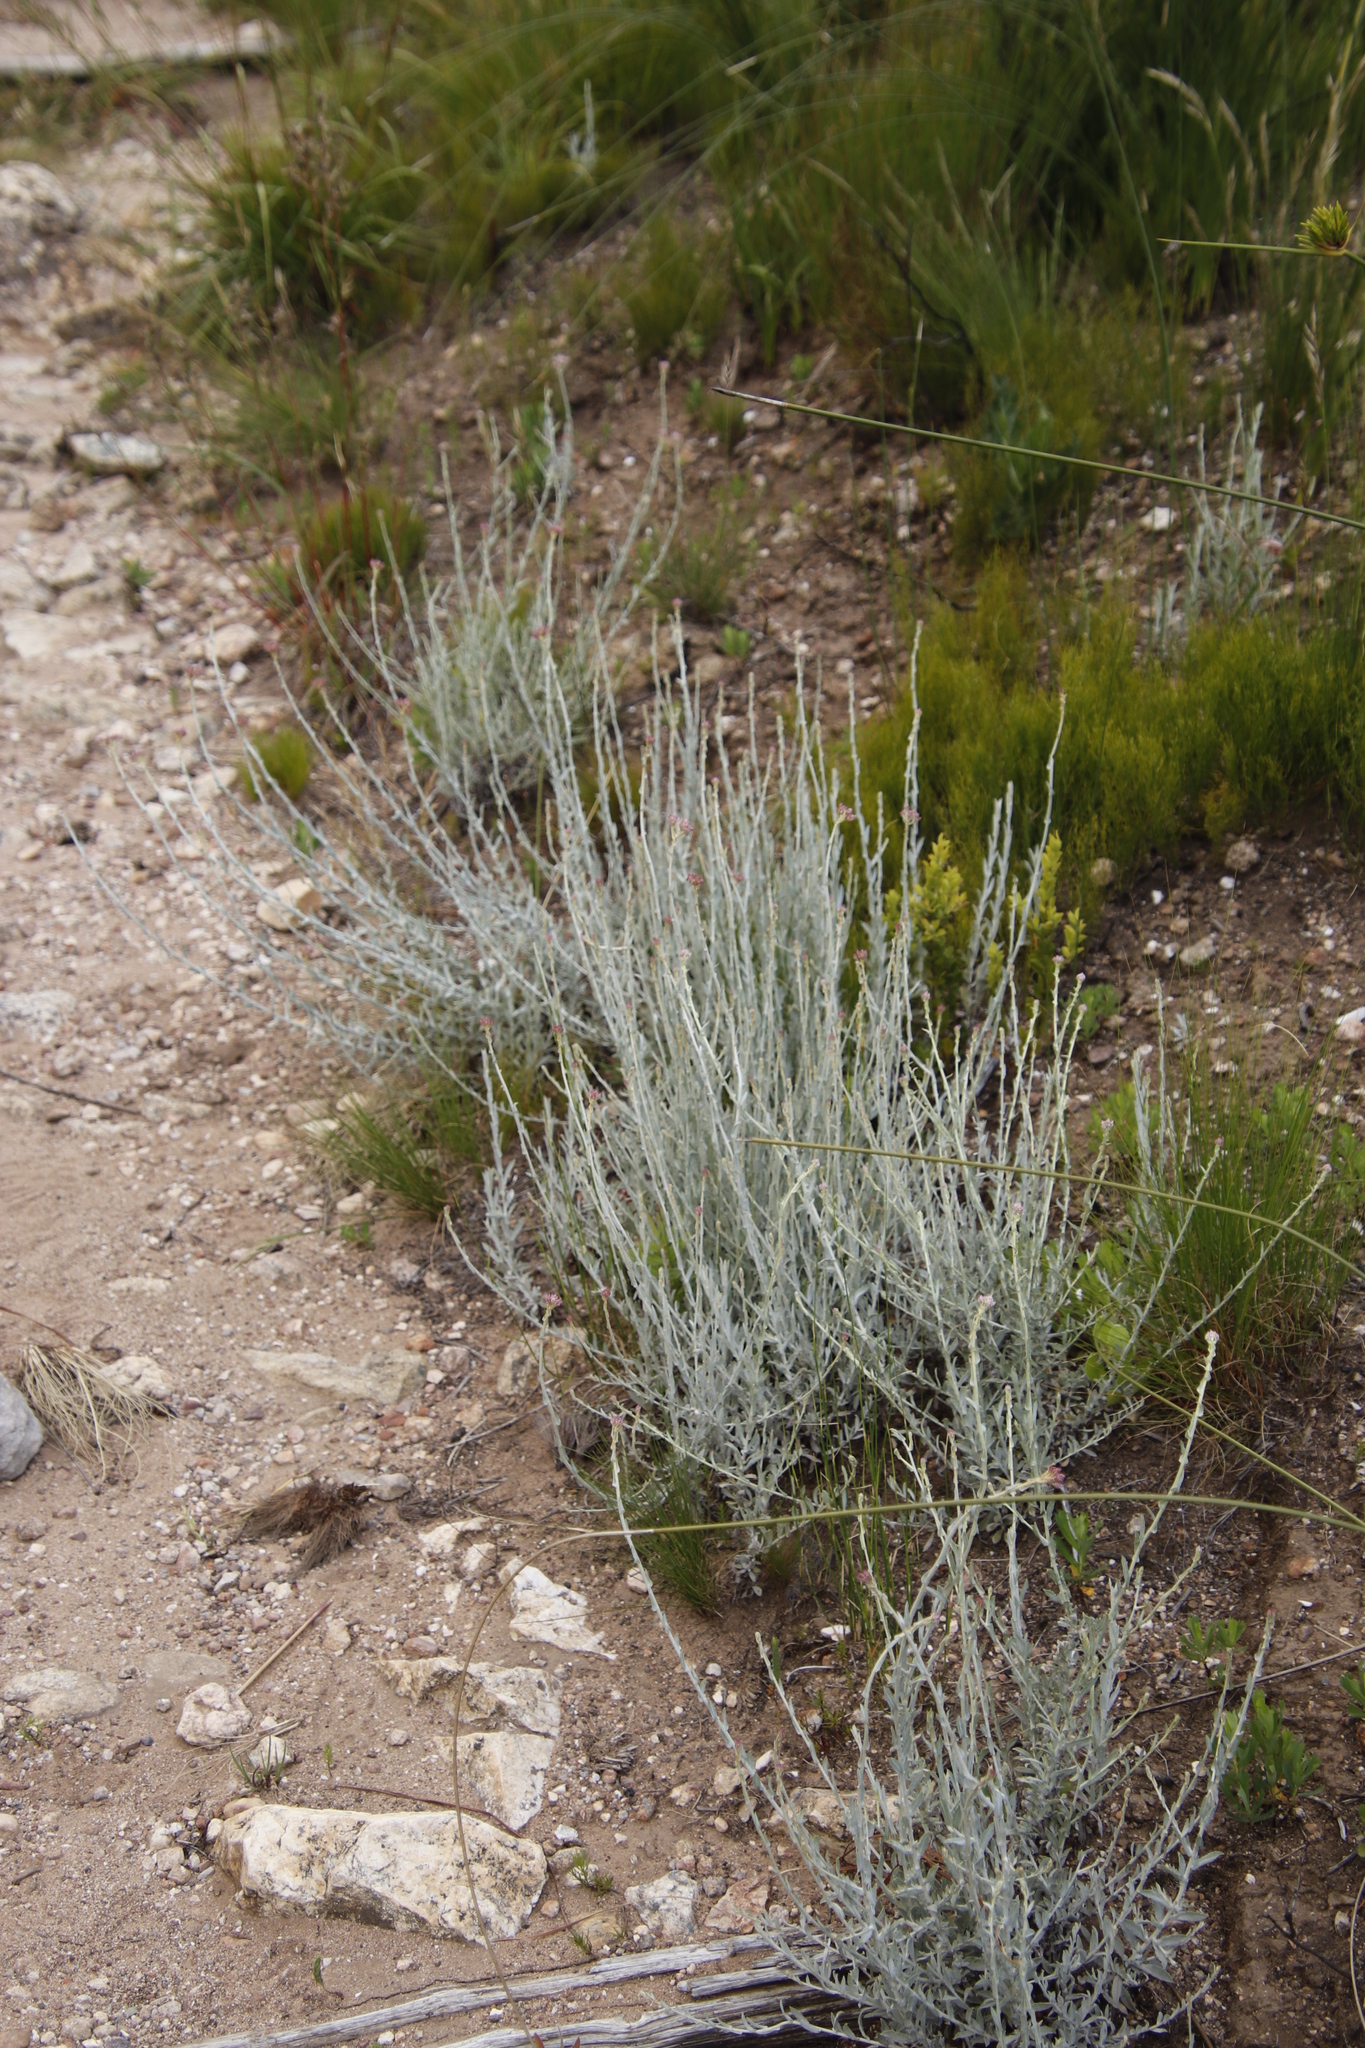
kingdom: Plantae
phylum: Tracheophyta
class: Magnoliopsida
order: Asterales
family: Asteraceae
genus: Helichrysum
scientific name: Helichrysum zeyheri
